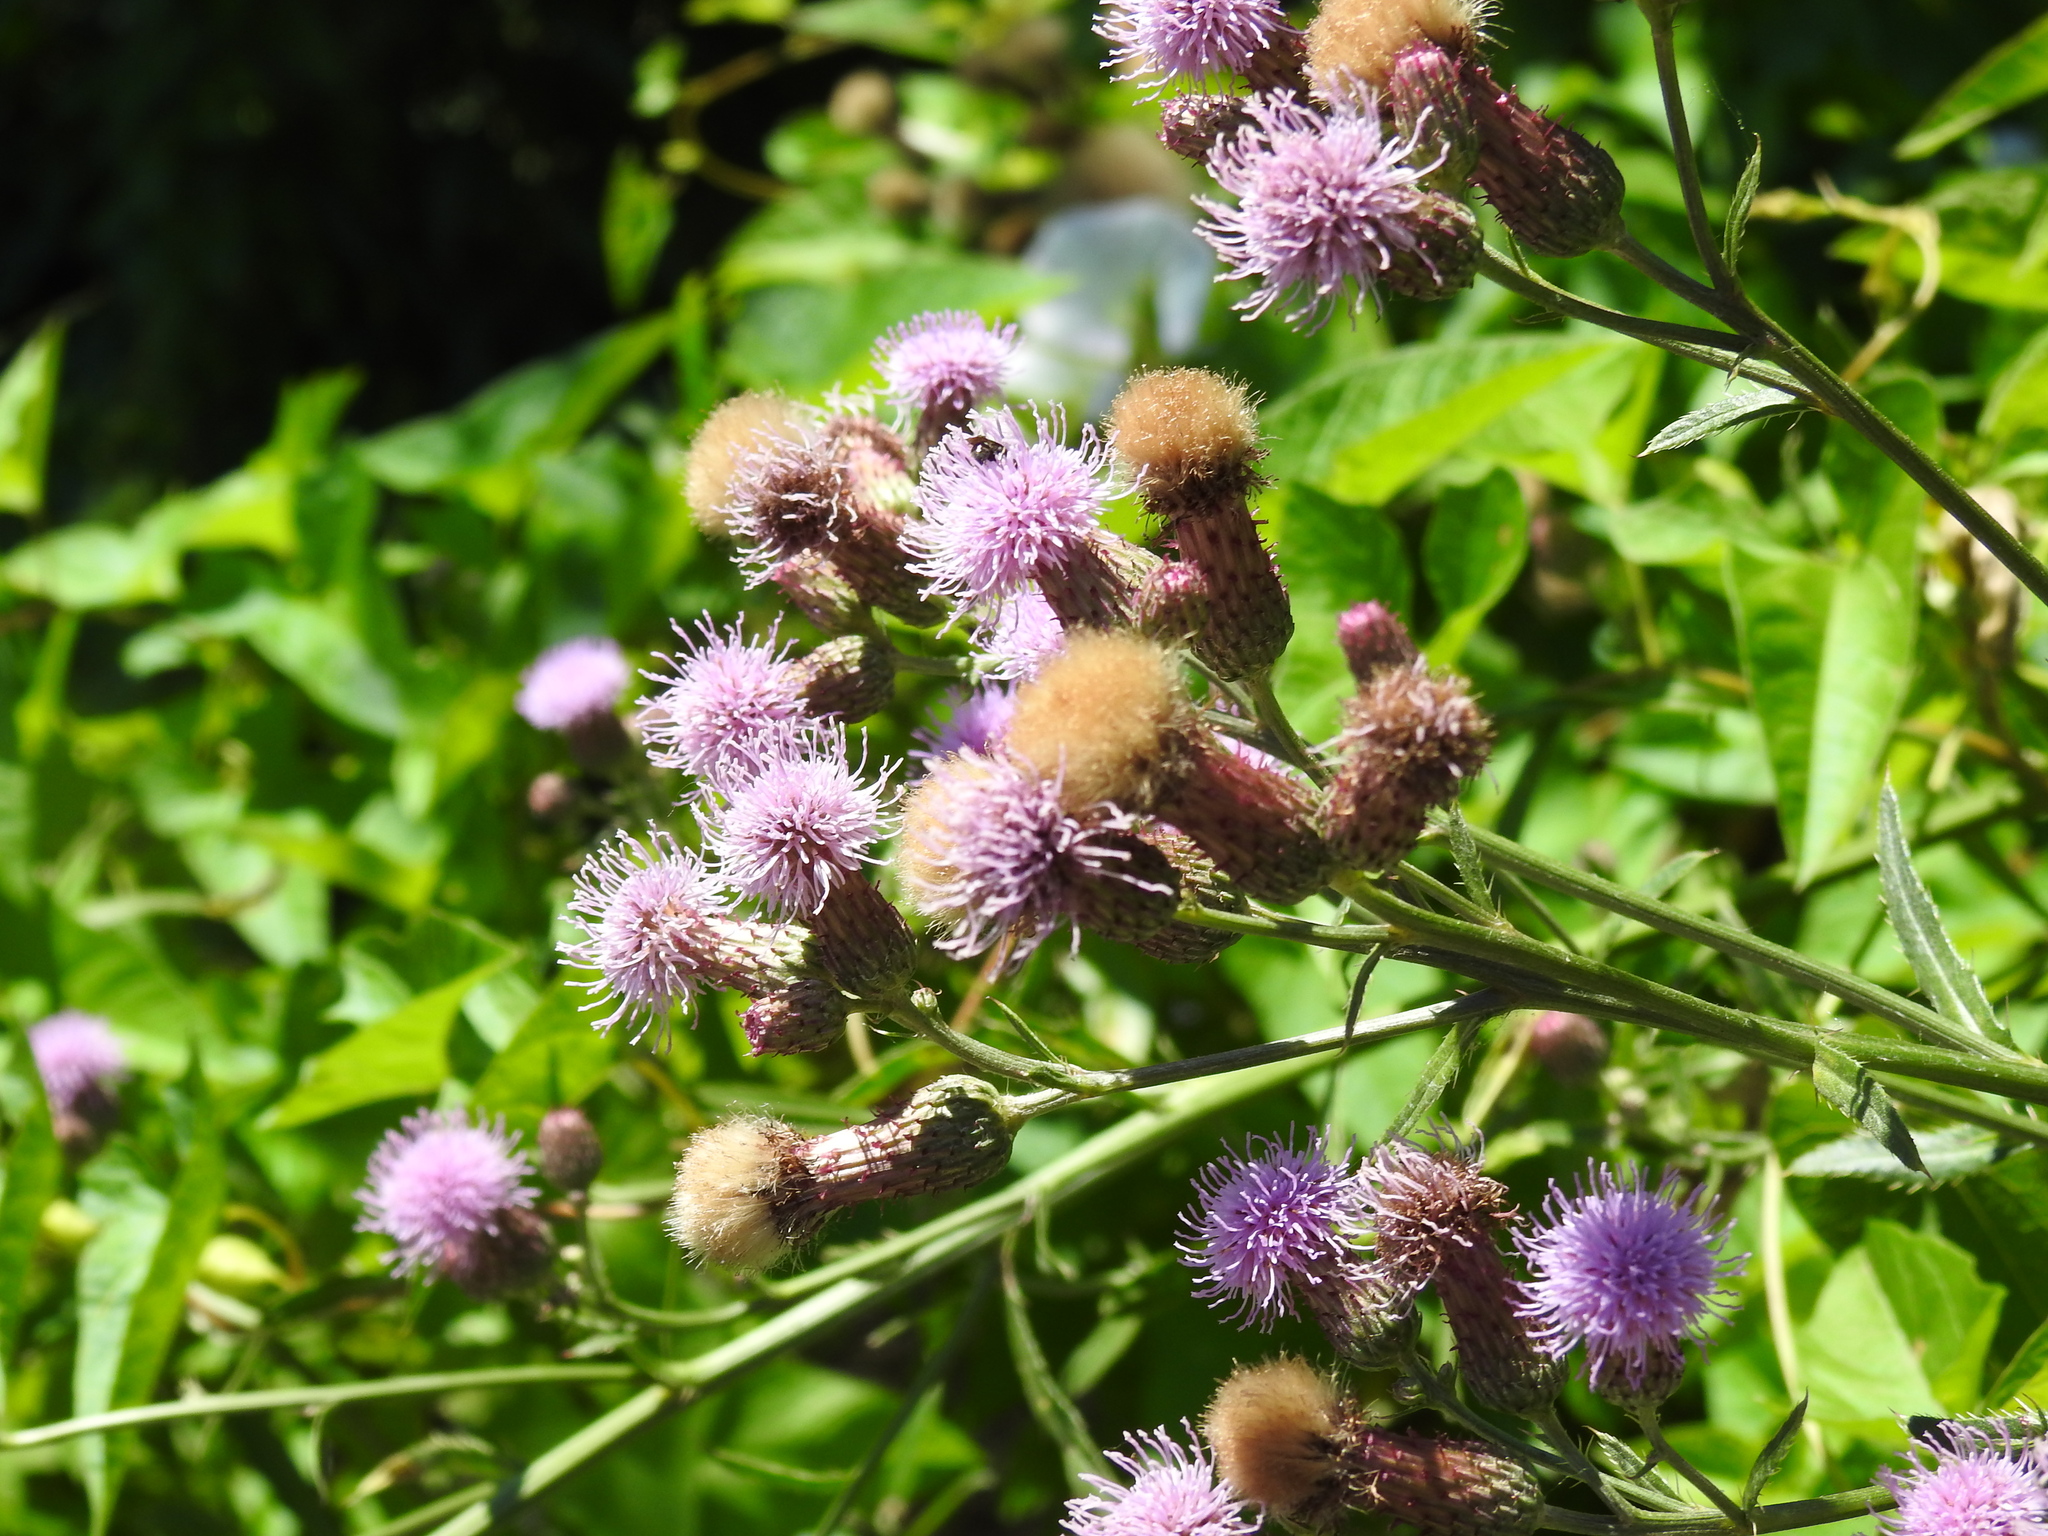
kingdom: Plantae
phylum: Tracheophyta
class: Magnoliopsida
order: Asterales
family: Asteraceae
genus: Cirsium
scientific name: Cirsium arvense
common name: Creeping thistle
